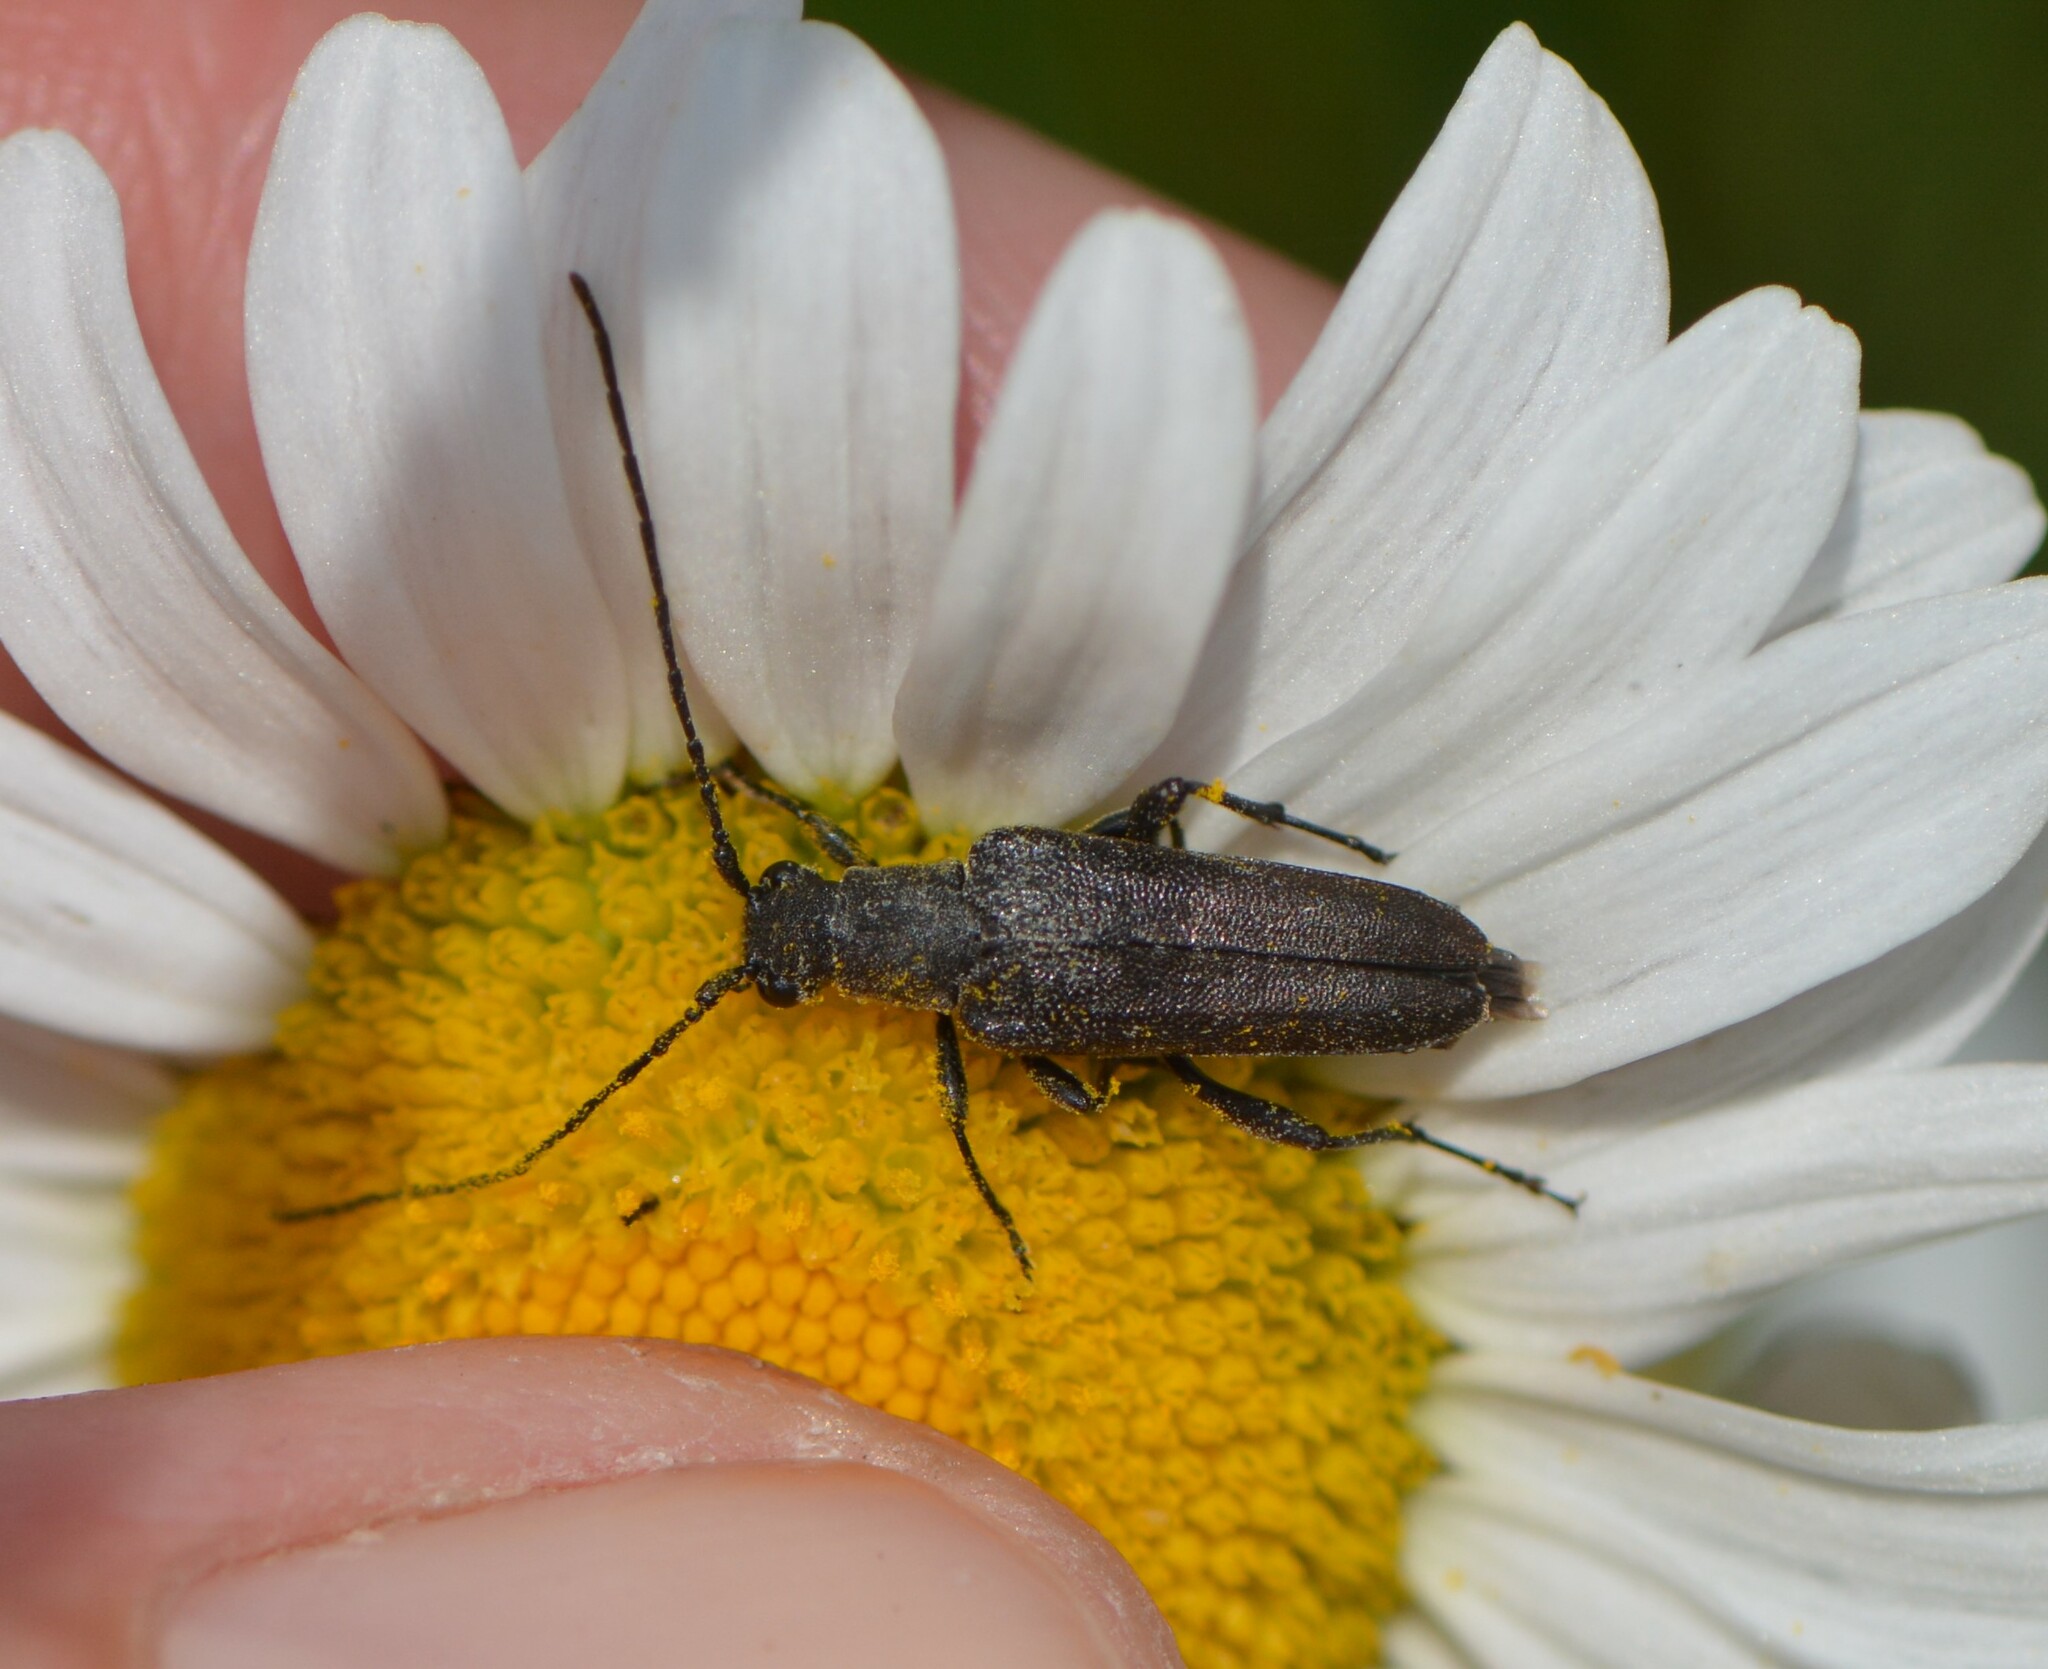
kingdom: Animalia
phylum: Arthropoda
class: Insecta
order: Coleoptera
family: Cerambycidae
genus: Trachysida
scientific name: Trachysida mutabilis
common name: Changeable flower longhorn
